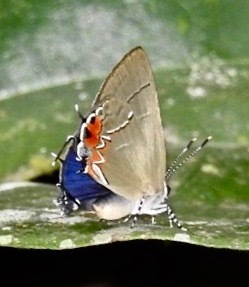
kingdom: Animalia
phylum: Arthropoda
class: Insecta
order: Lepidoptera
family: Lycaenidae
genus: Thecla
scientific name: Thecla cerata
